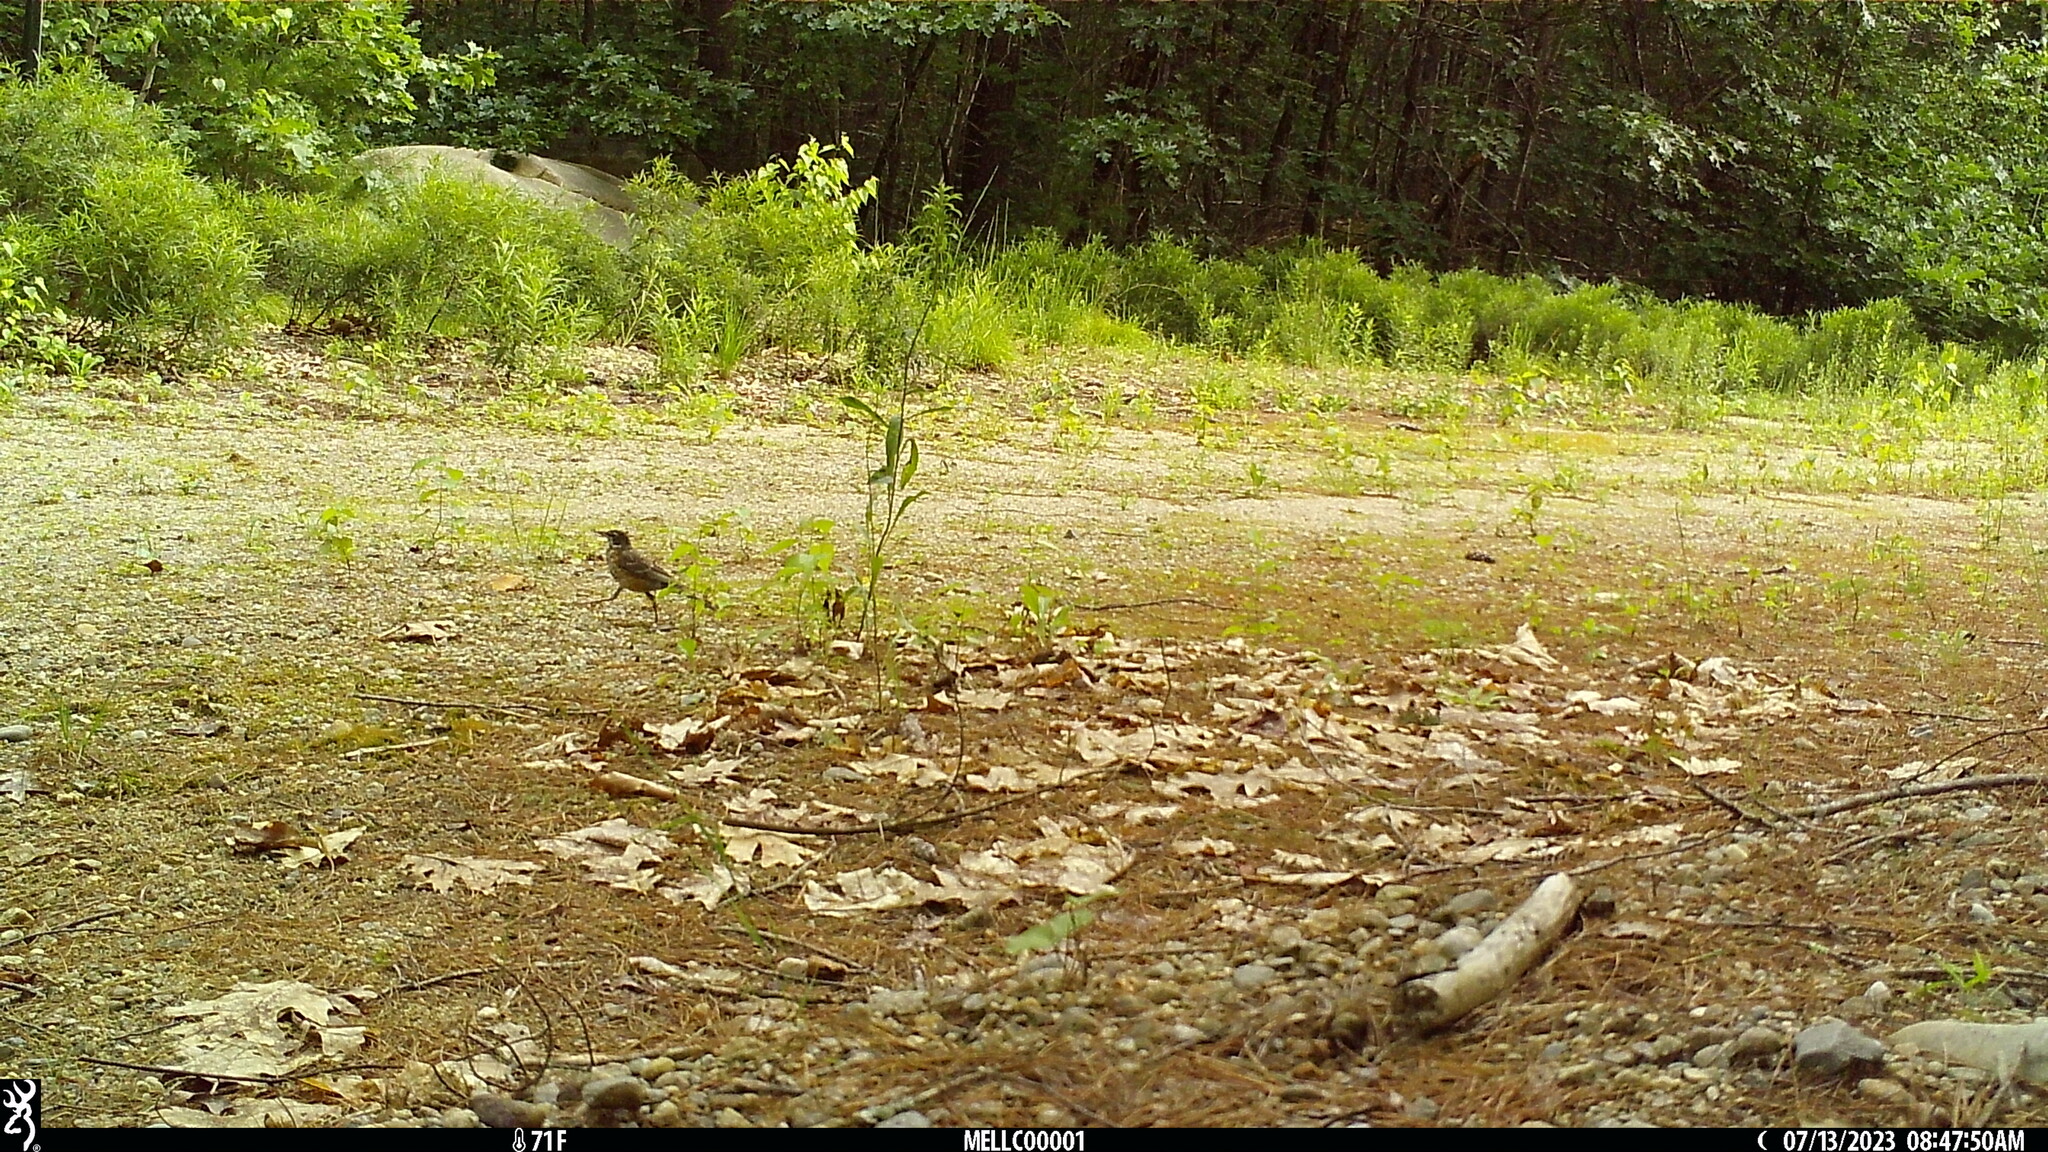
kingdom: Animalia
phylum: Chordata
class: Aves
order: Passeriformes
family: Turdidae
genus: Turdus
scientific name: Turdus migratorius
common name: American robin
